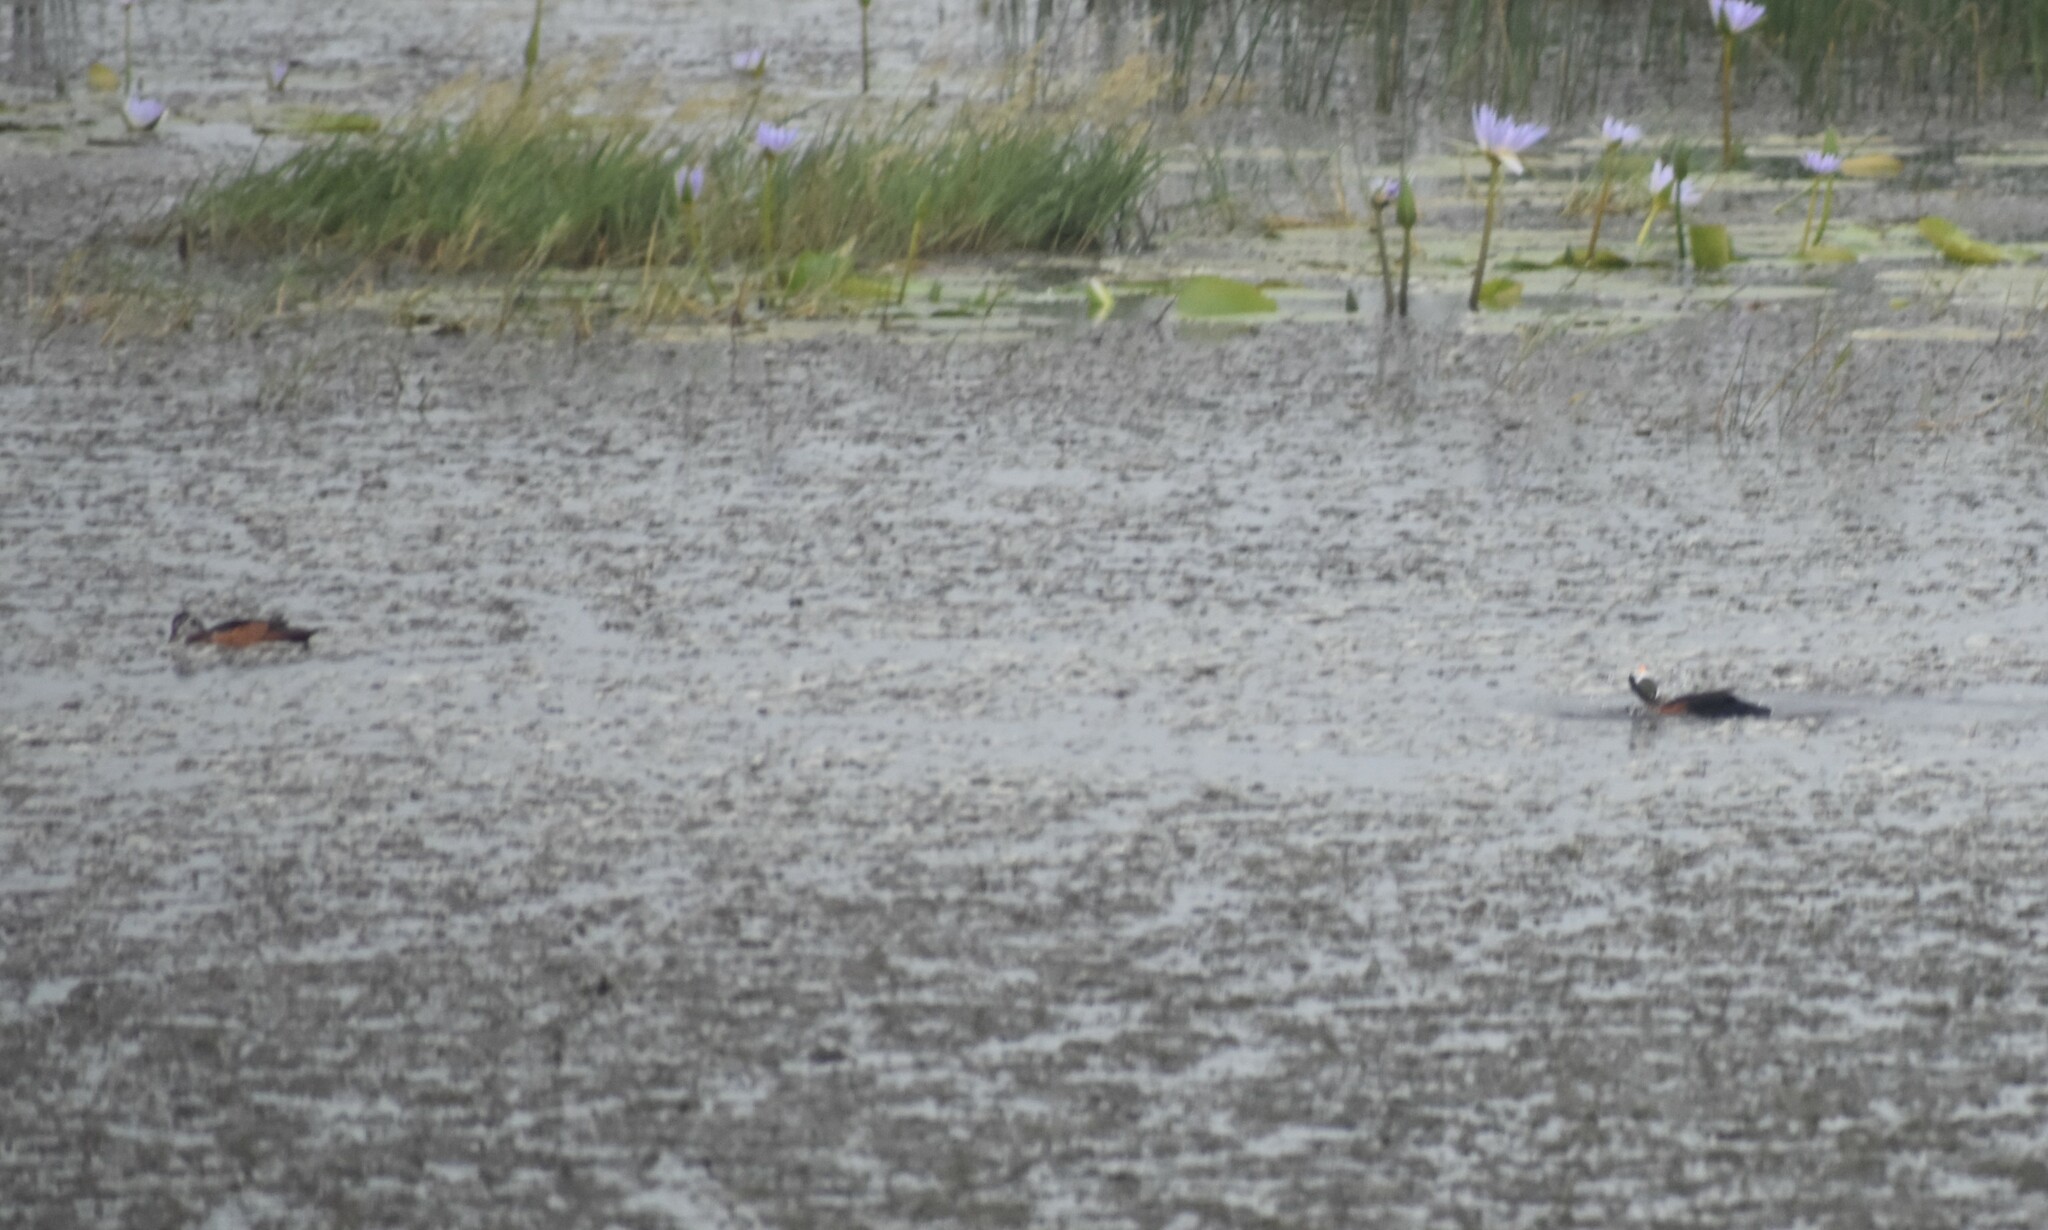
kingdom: Animalia
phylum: Chordata
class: Aves
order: Anseriformes
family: Anatidae
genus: Nettapus
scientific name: Nettapus auritus
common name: African pygmy-goose
